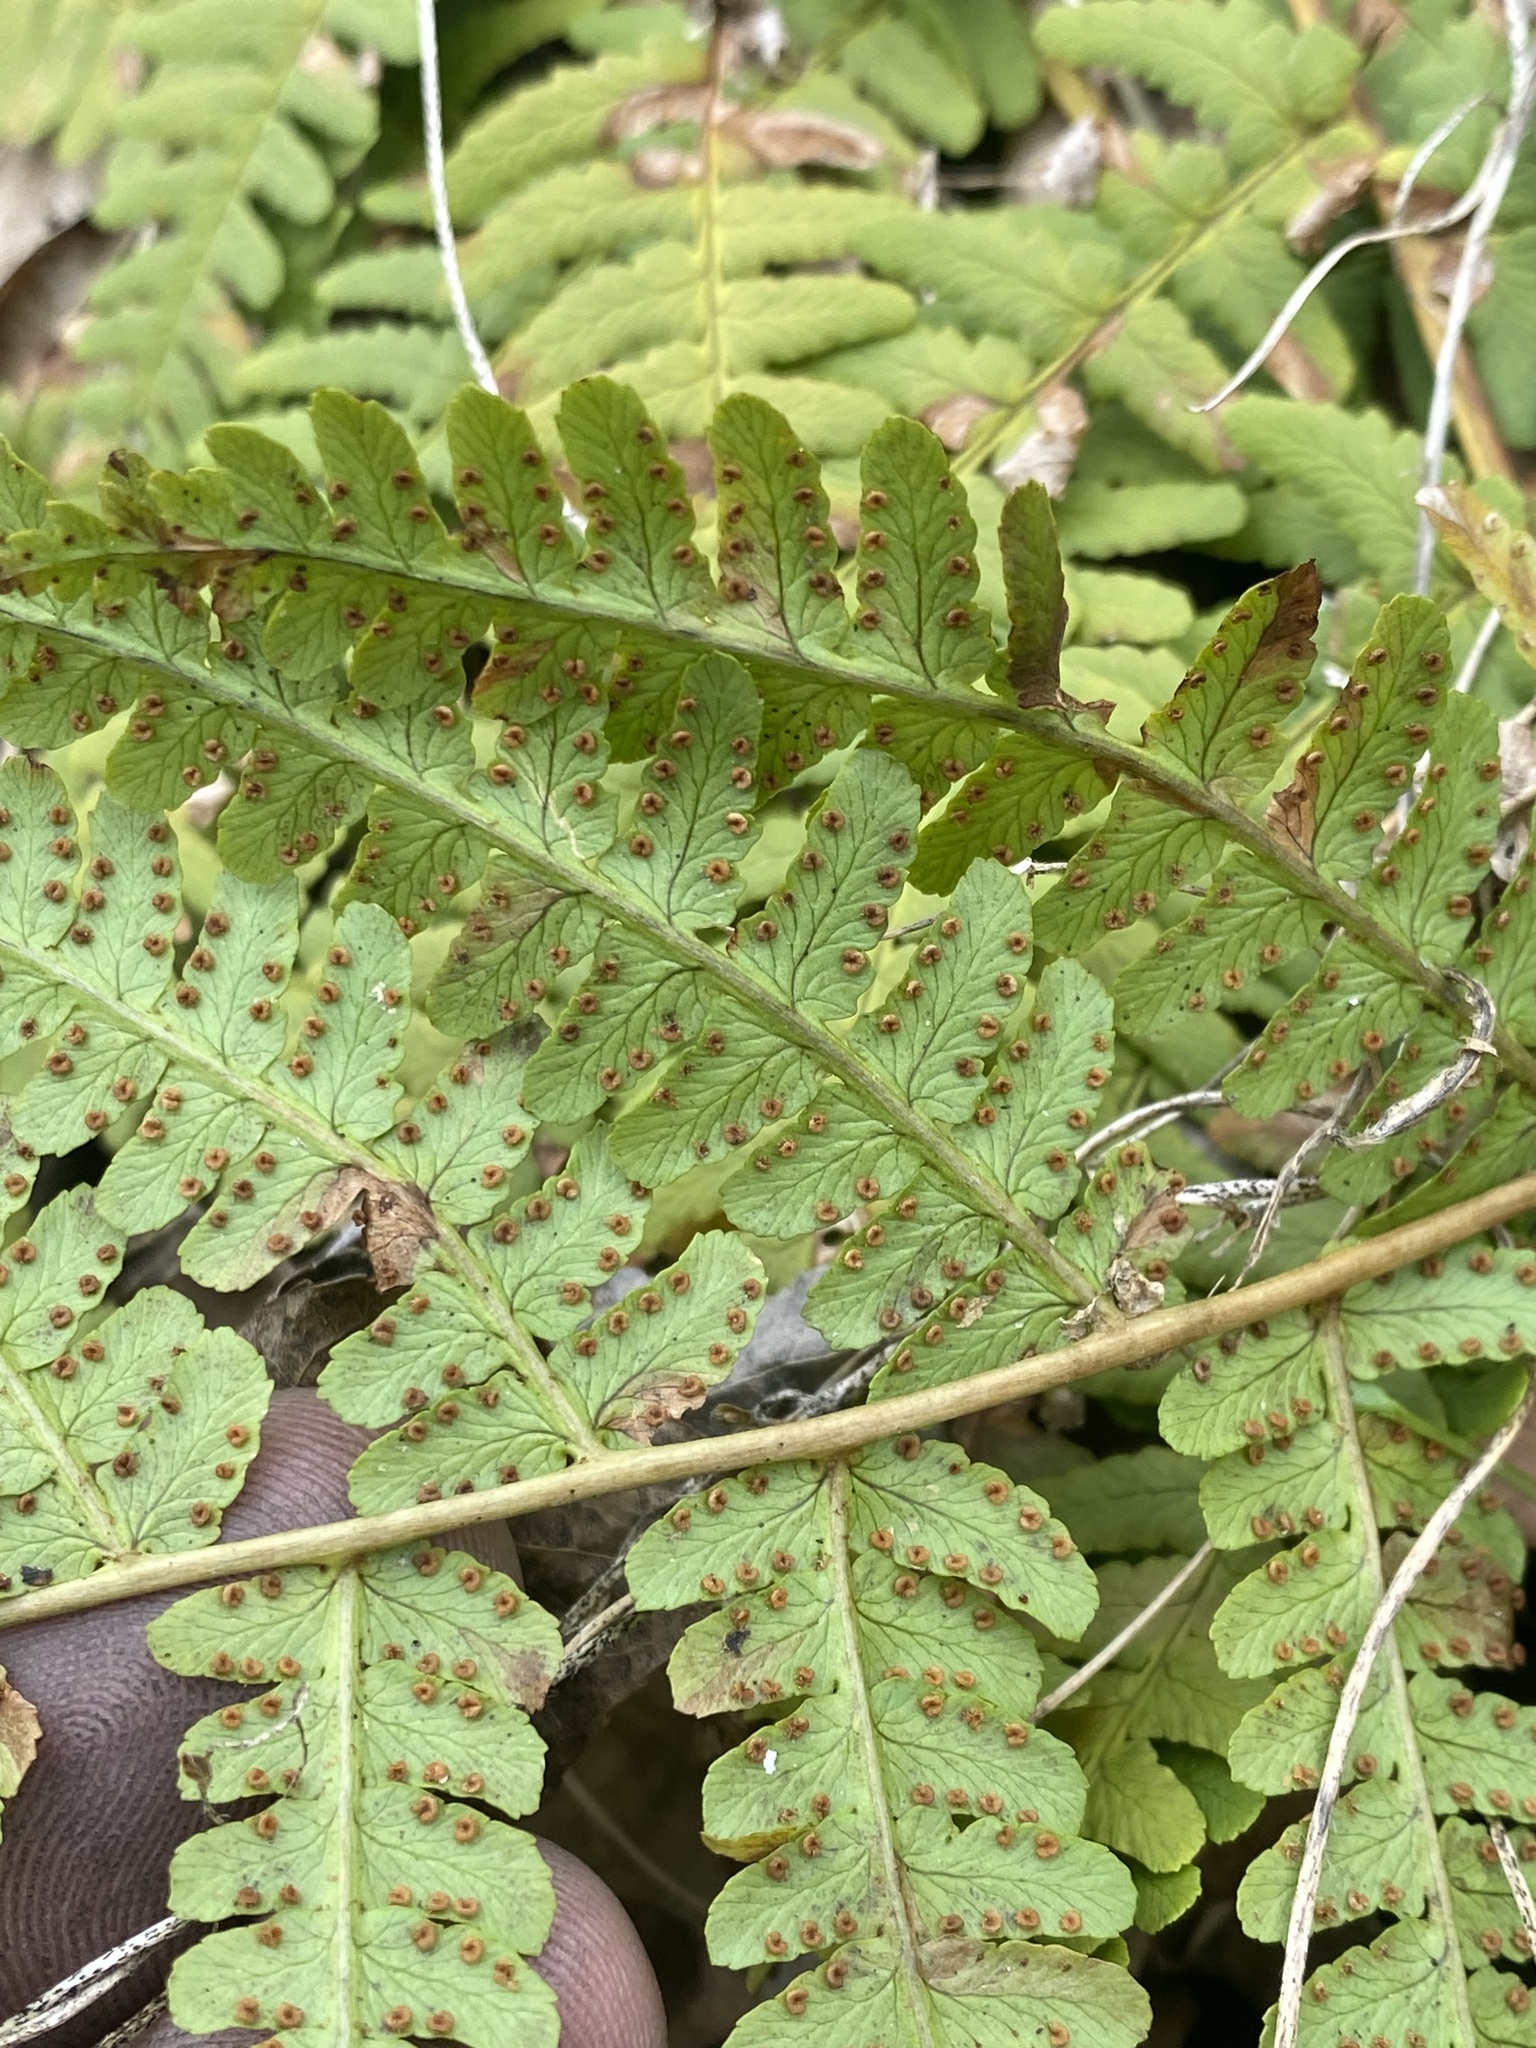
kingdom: Plantae
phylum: Tracheophyta
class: Polypodiopsida
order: Polypodiales
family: Dryopteridaceae
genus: Dryopteris
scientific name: Dryopteris marginalis
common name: Marginal wood fern
